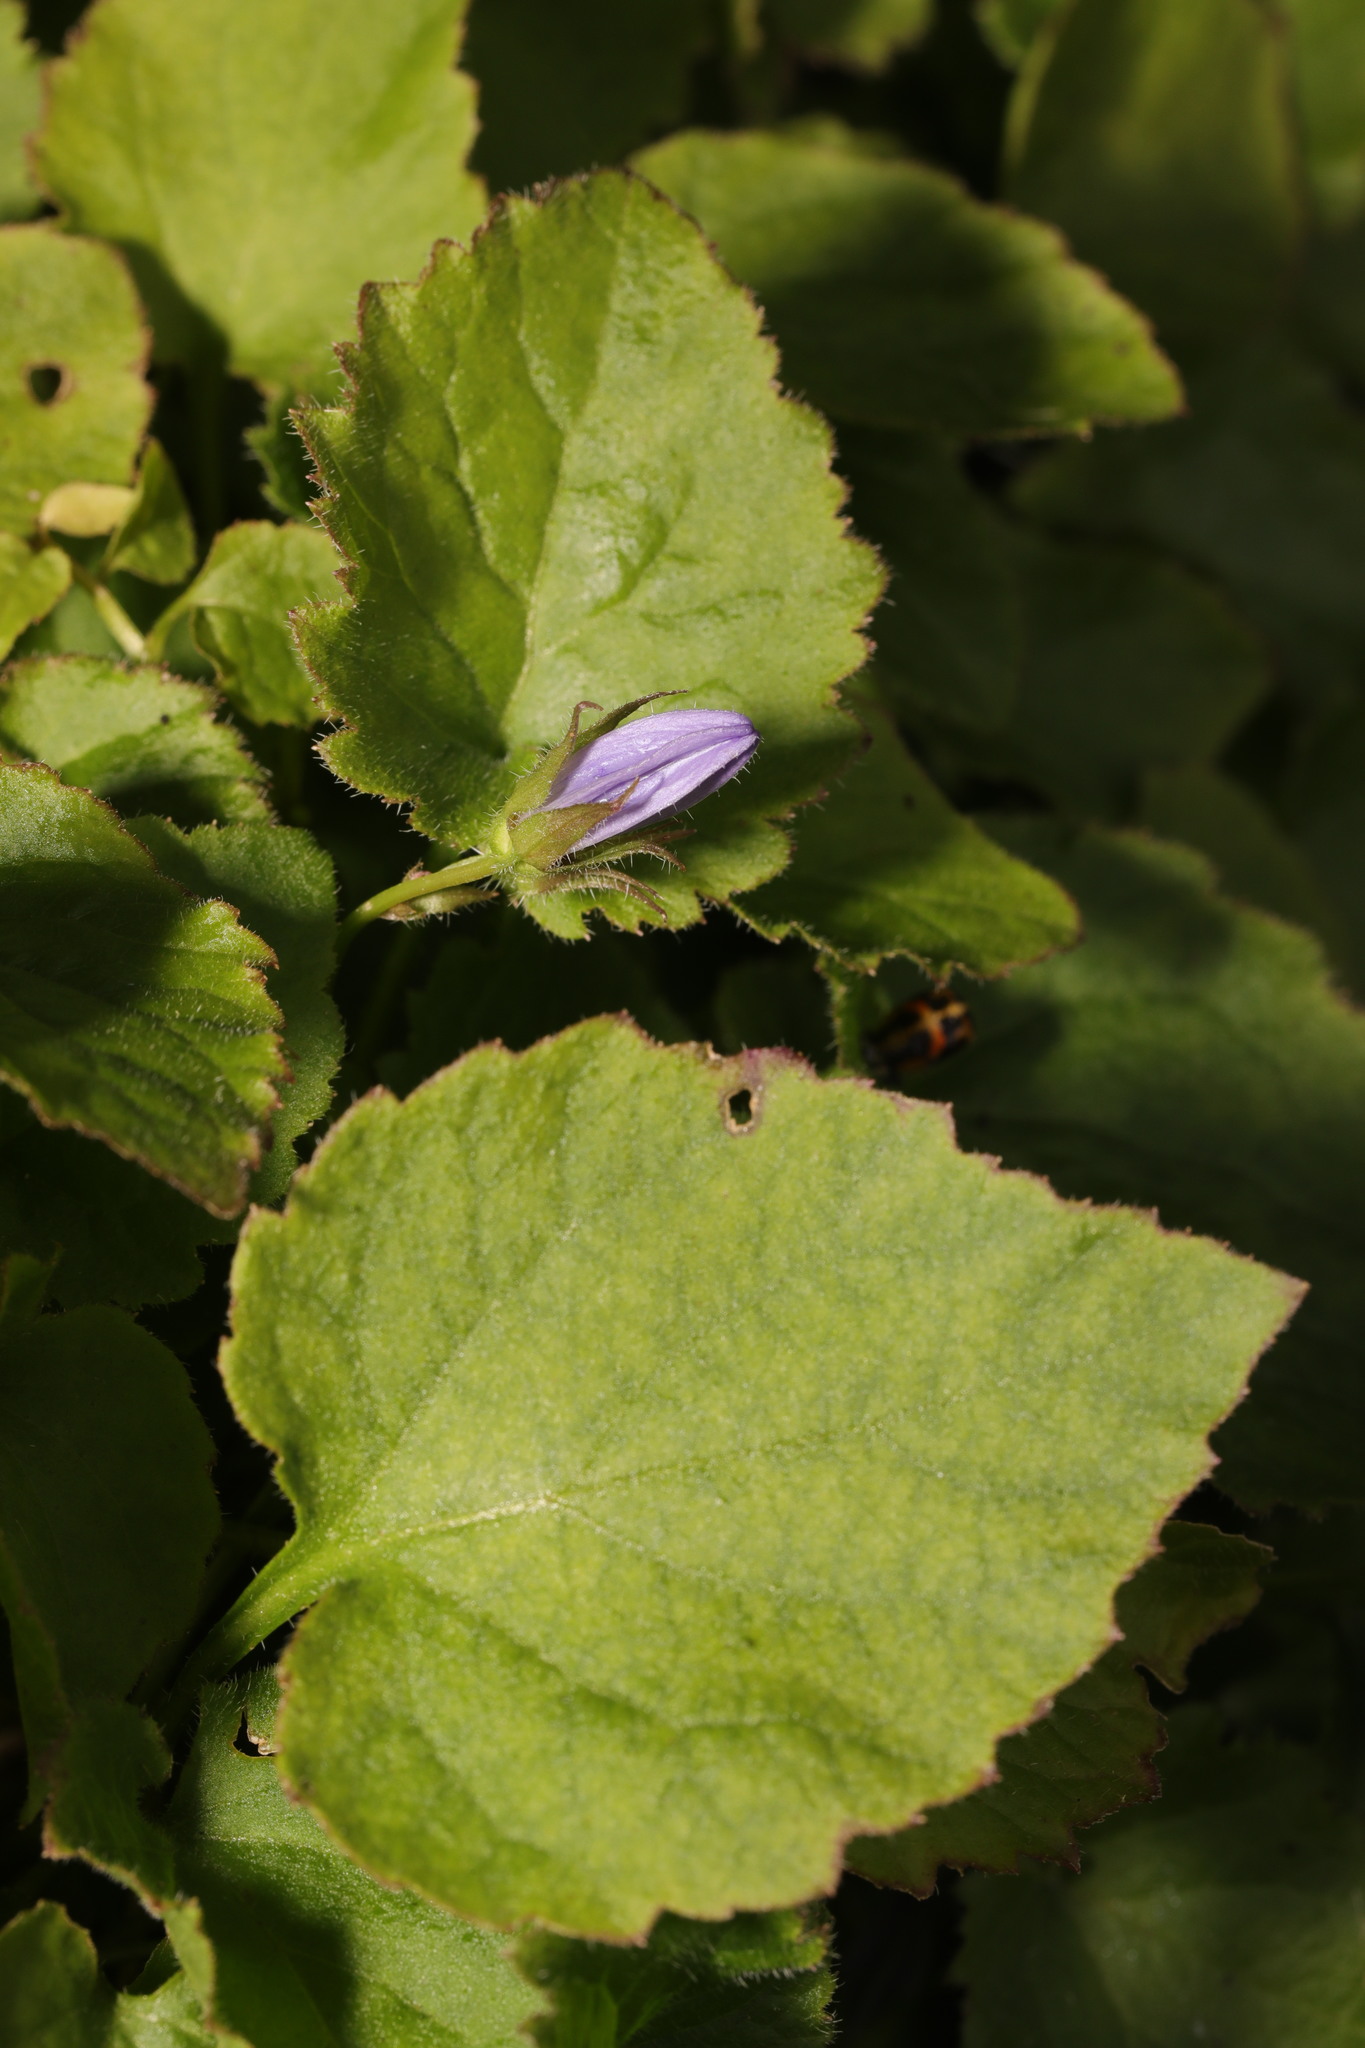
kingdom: Plantae
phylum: Tracheophyta
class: Magnoliopsida
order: Asterales
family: Campanulaceae
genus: Campanula
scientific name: Campanula poscharskyana
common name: Trailing bellflower
